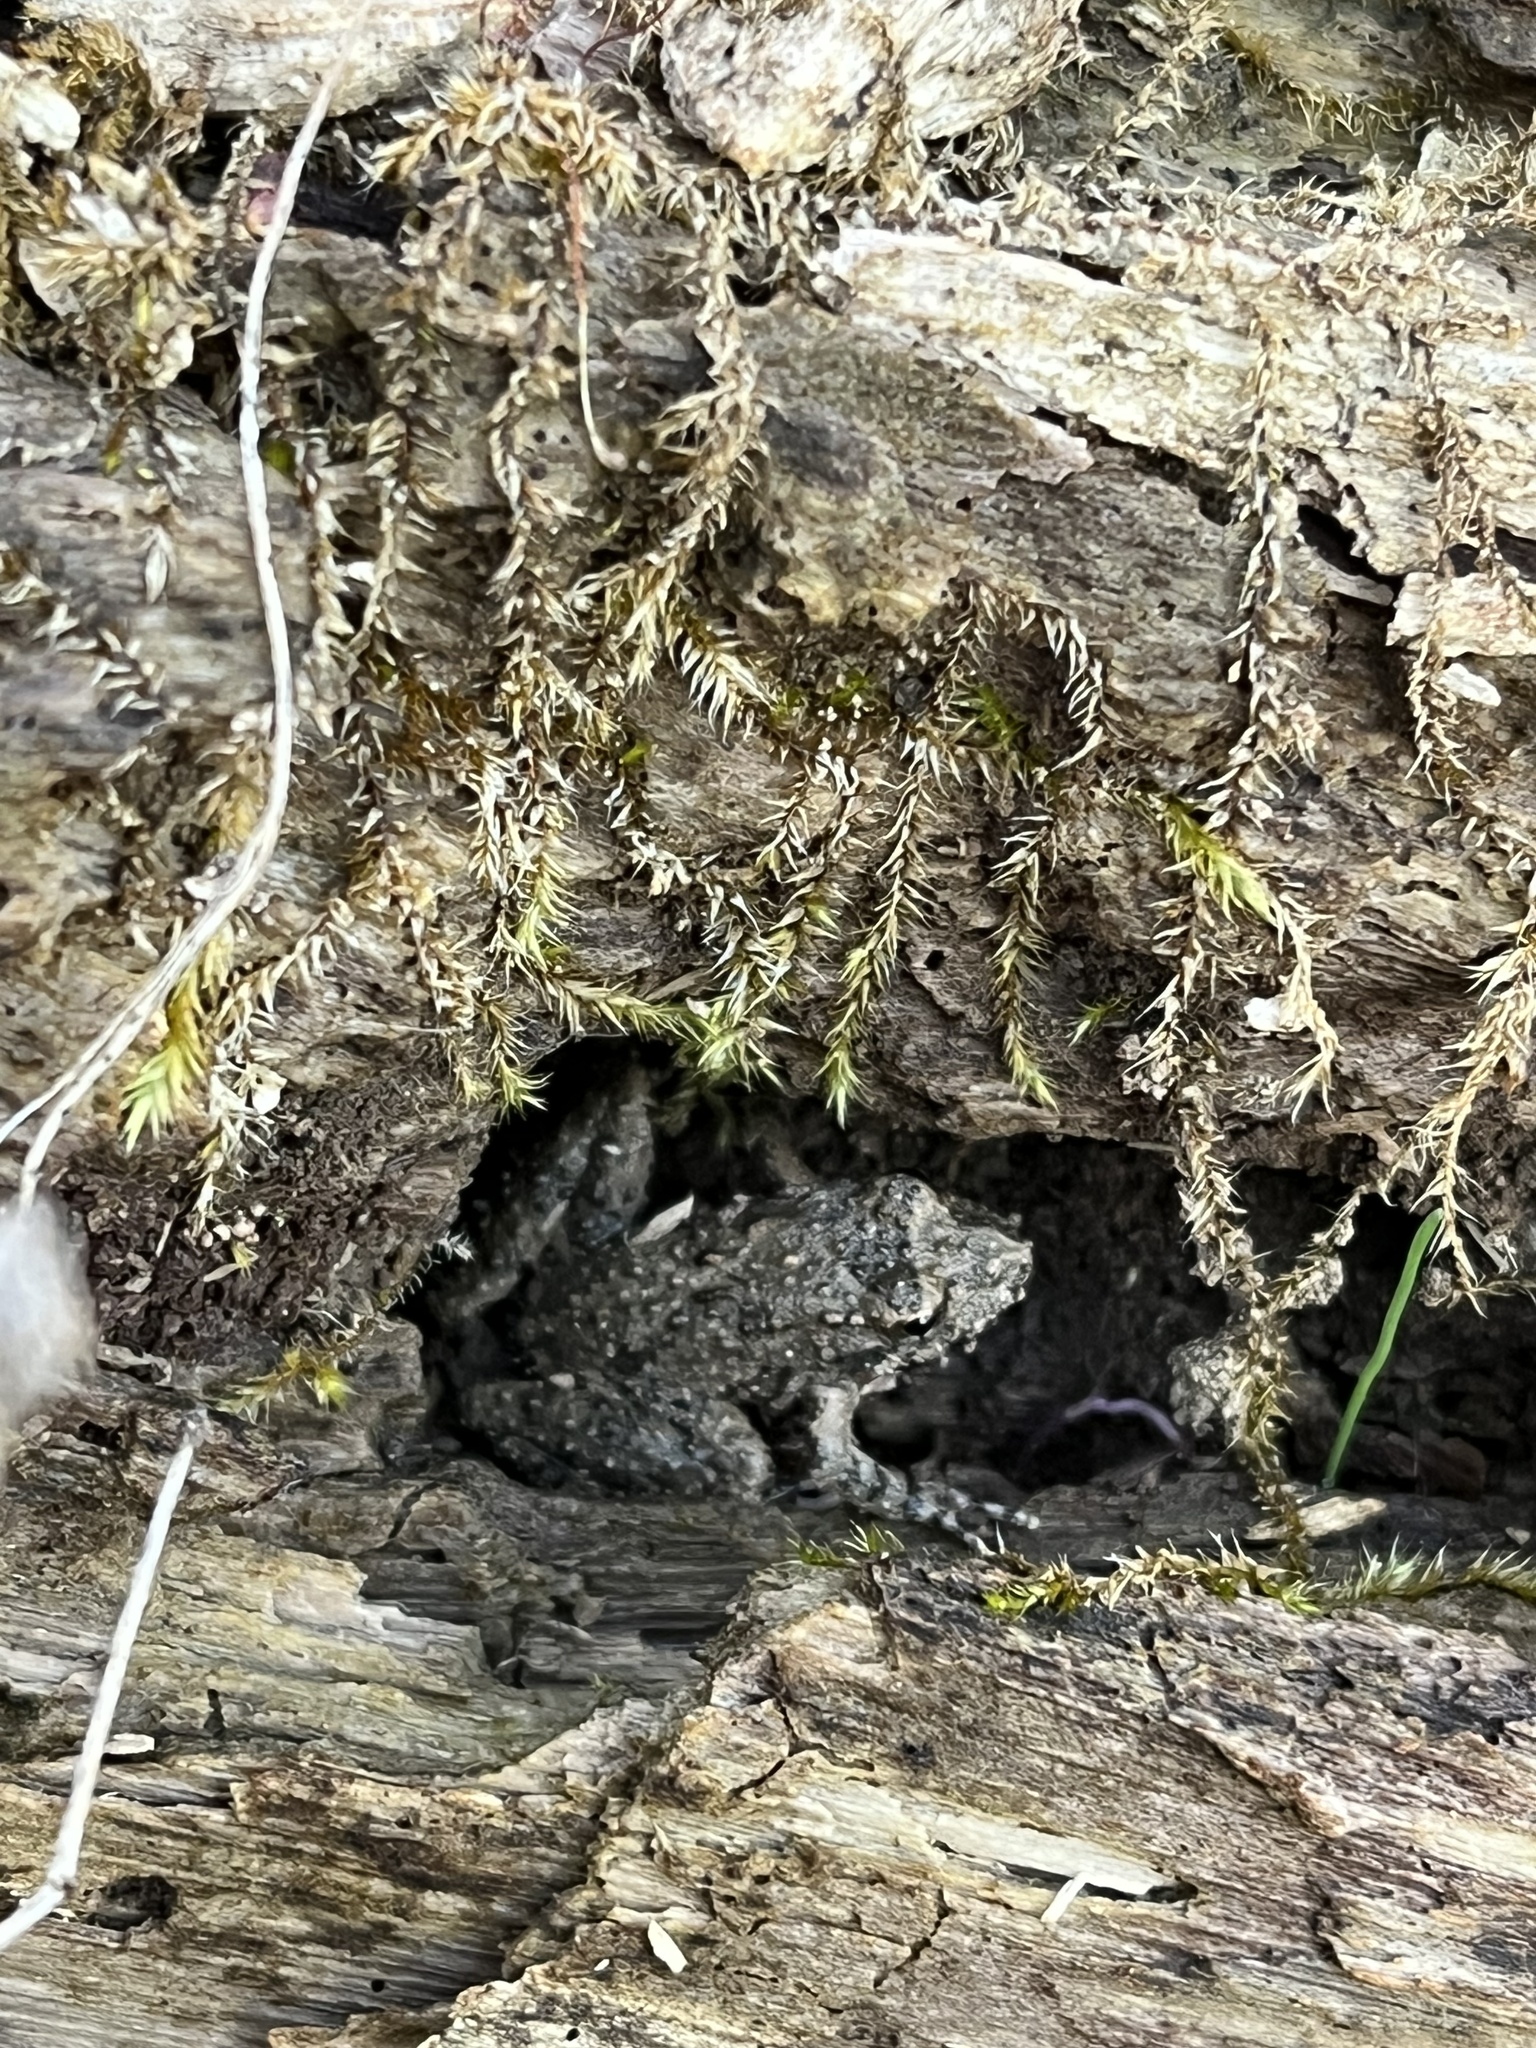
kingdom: Animalia
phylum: Chordata
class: Amphibia
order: Anura
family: Hylidae
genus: Acris
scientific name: Acris blanchardi
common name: Blanchard's cricket frog
